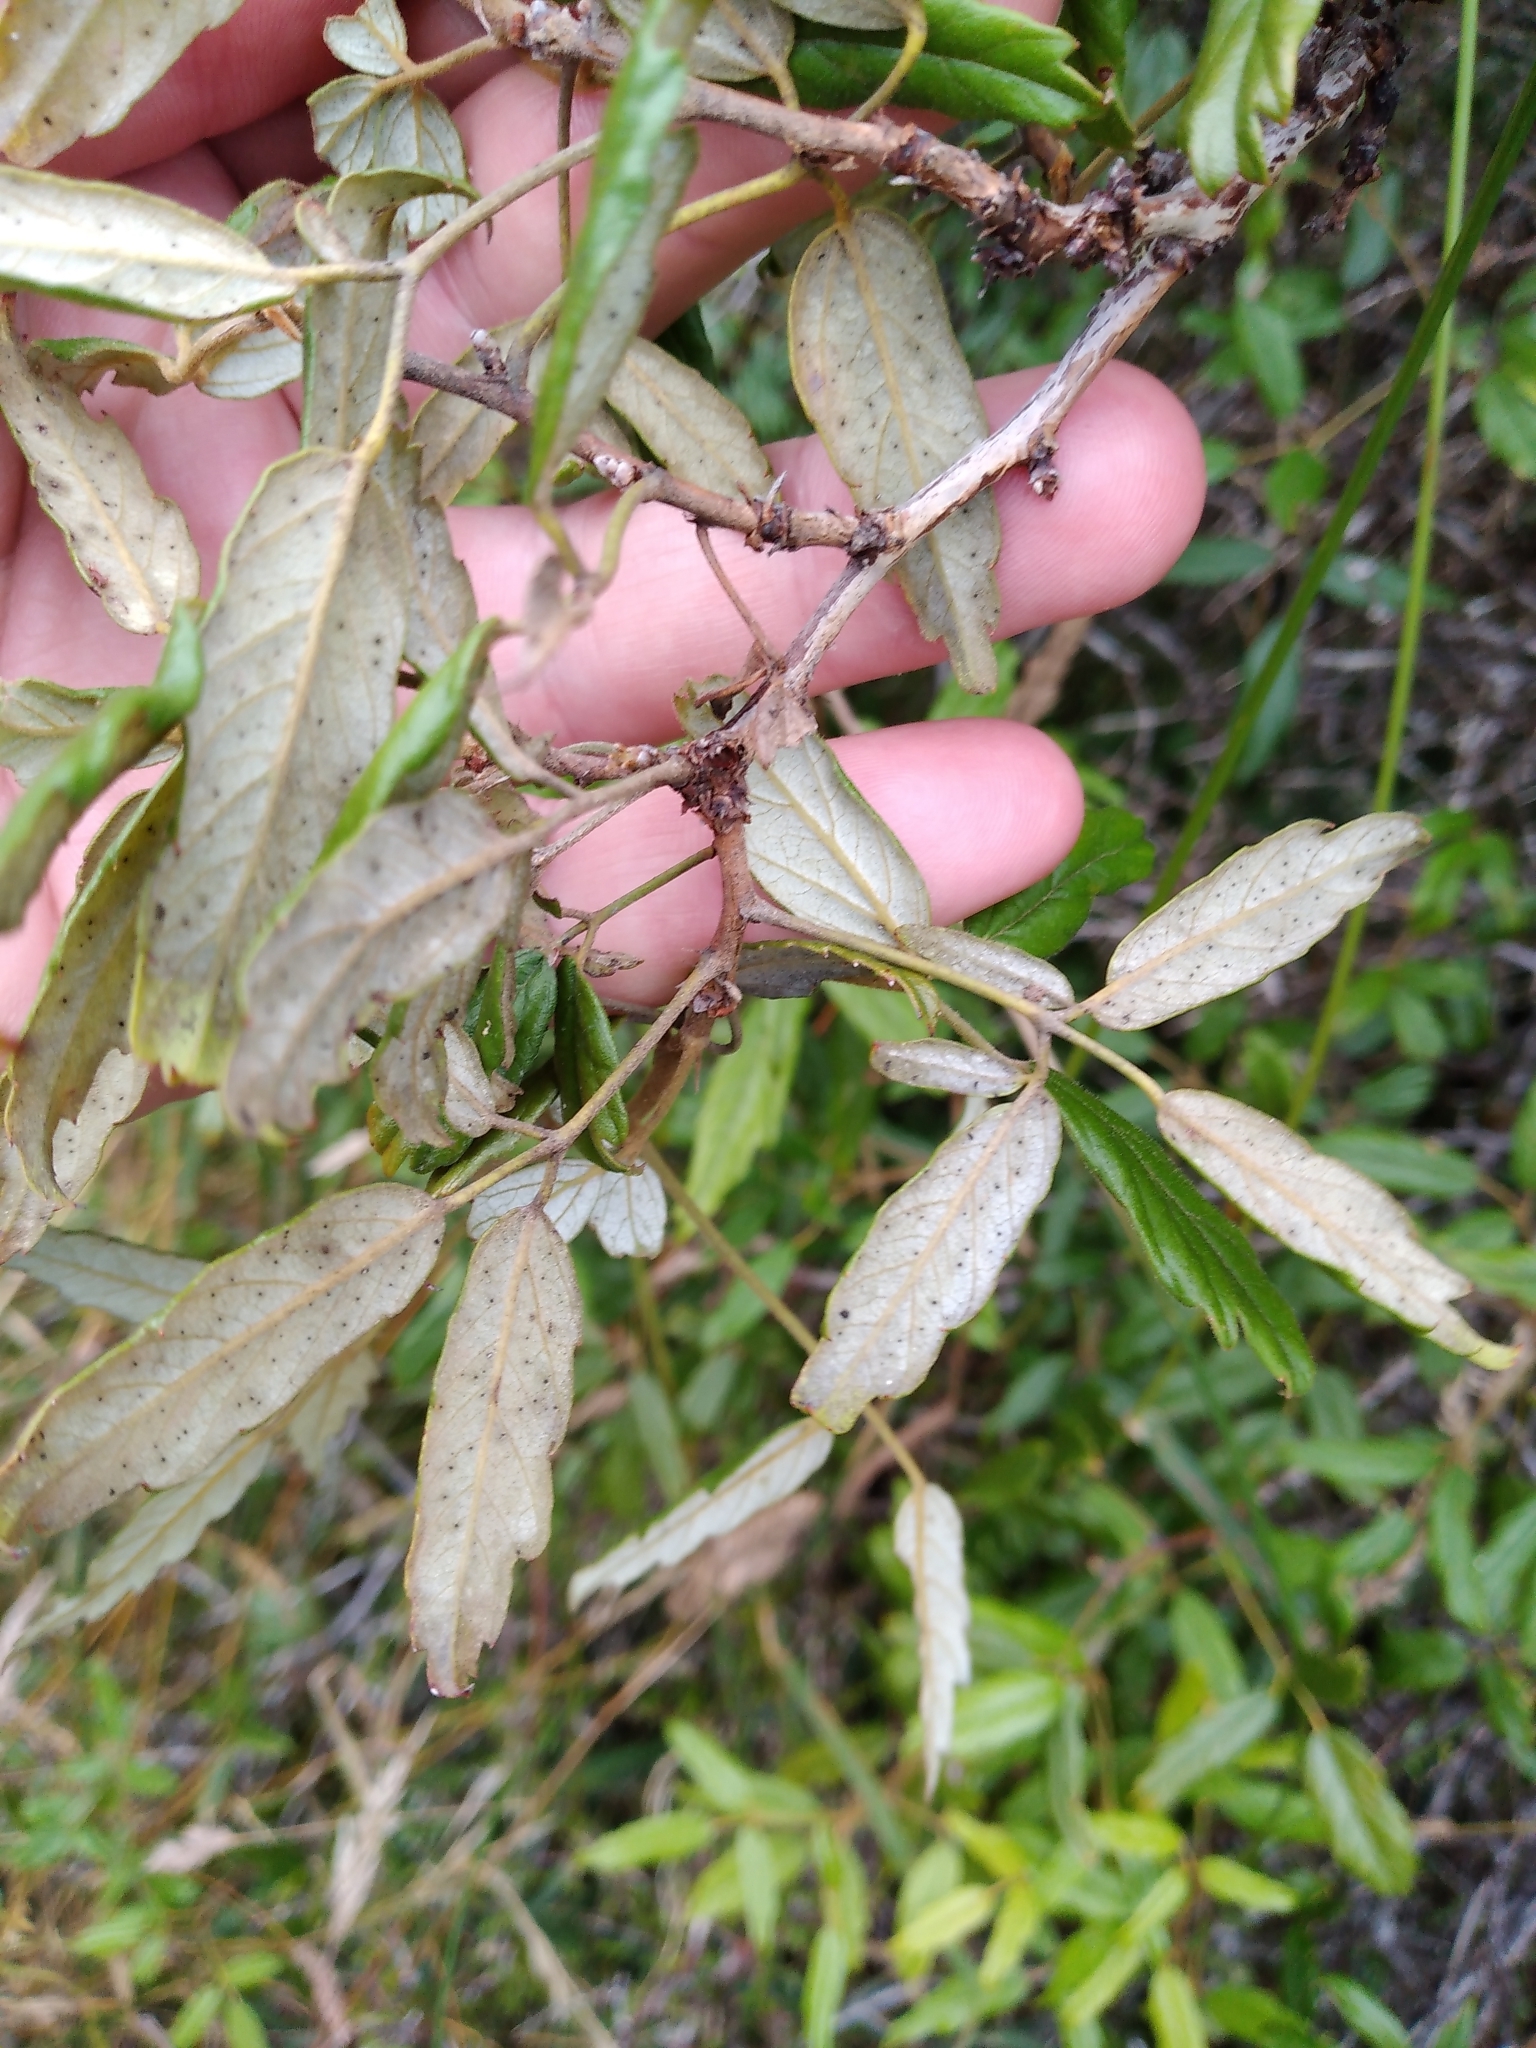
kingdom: Plantae
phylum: Tracheophyta
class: Magnoliopsida
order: Rosales
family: Rosaceae
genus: Rubus
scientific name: Rubus schmidelioides
